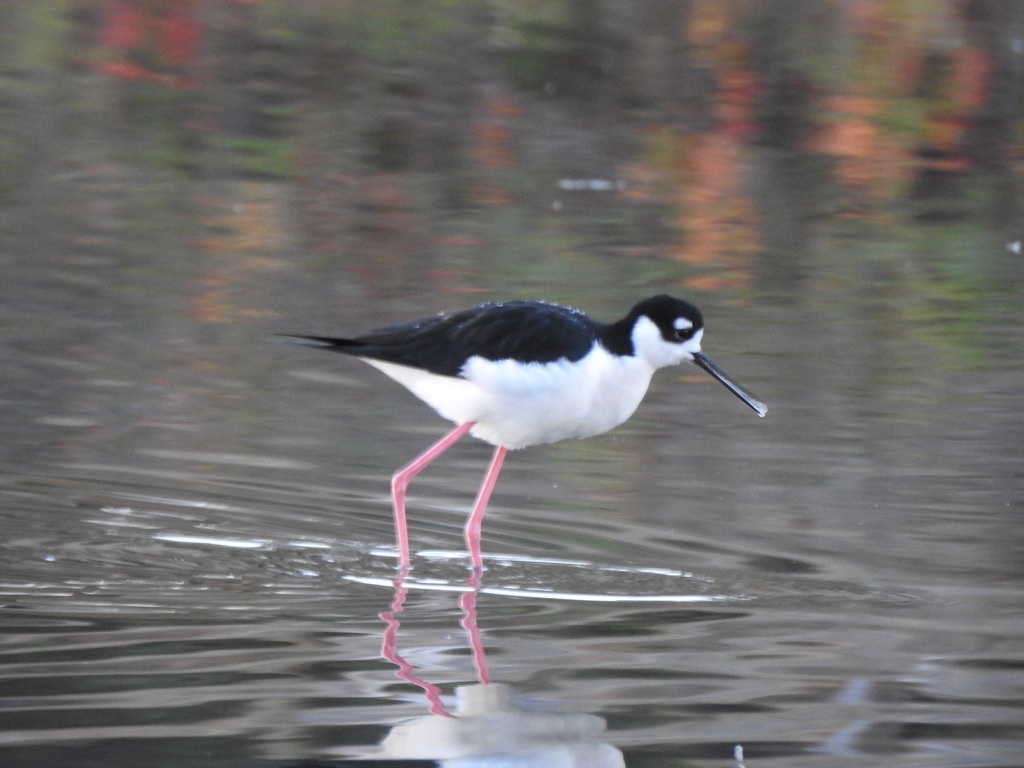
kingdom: Animalia
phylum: Chordata
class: Aves
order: Charadriiformes
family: Recurvirostridae
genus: Himantopus
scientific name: Himantopus mexicanus
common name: Black-necked stilt
